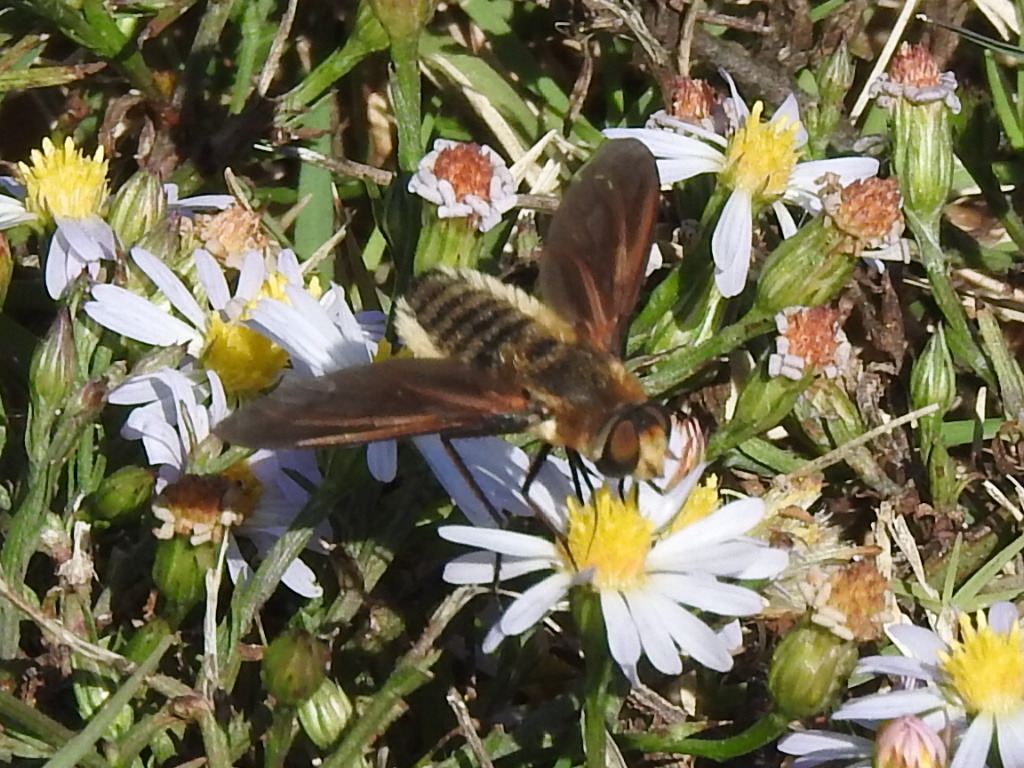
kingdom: Animalia
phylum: Arthropoda
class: Insecta
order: Diptera
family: Bombyliidae
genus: Poecilanthrax
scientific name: Poecilanthrax lucifer
